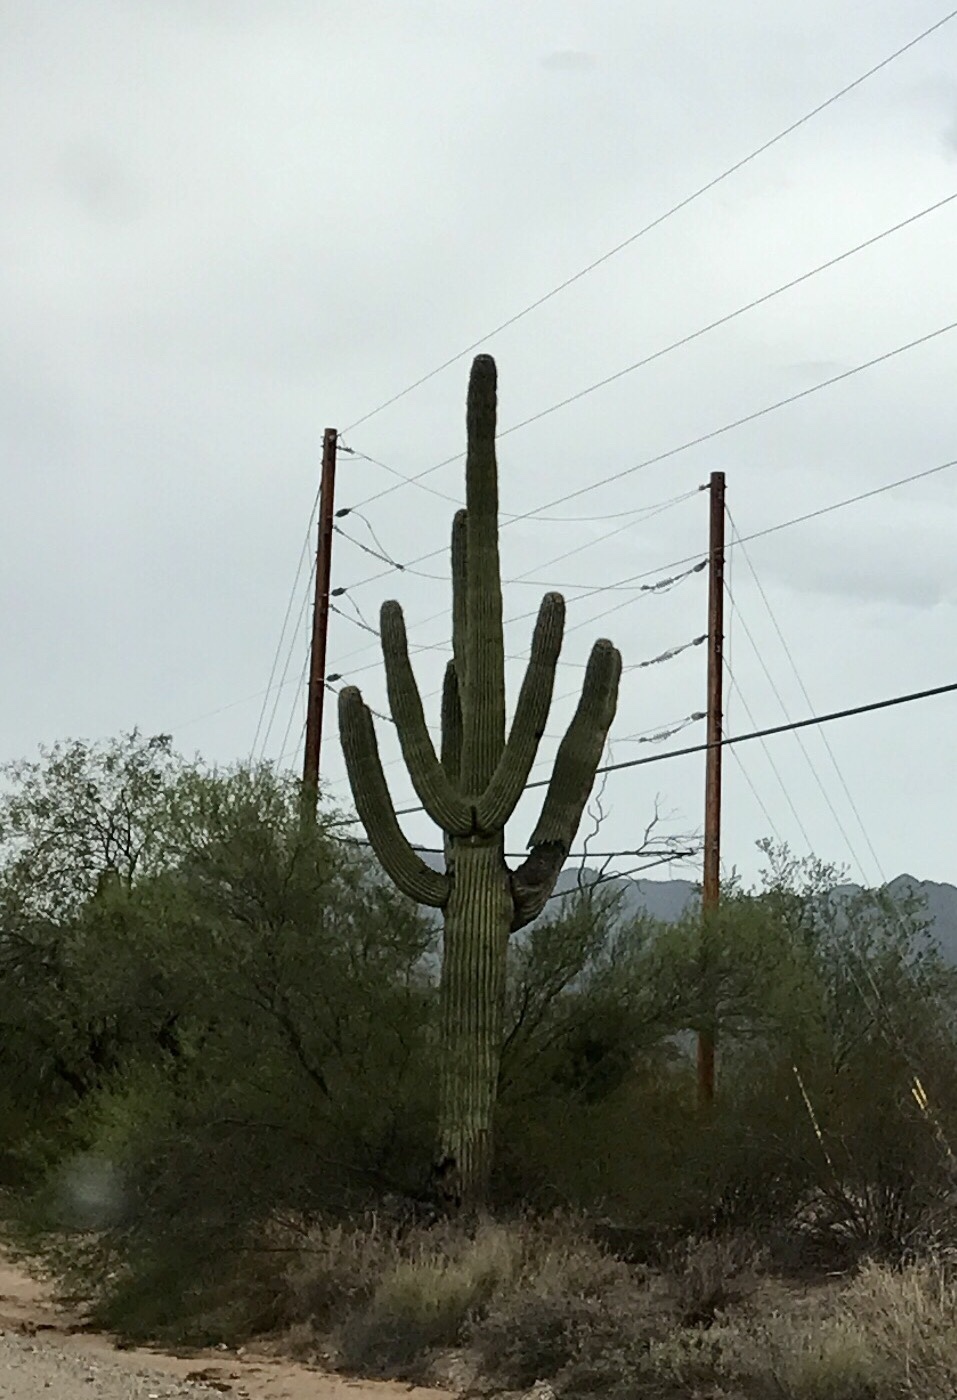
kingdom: Plantae
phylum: Tracheophyta
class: Magnoliopsida
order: Caryophyllales
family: Cactaceae
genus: Carnegiea
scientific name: Carnegiea gigantea
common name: Saguaro
